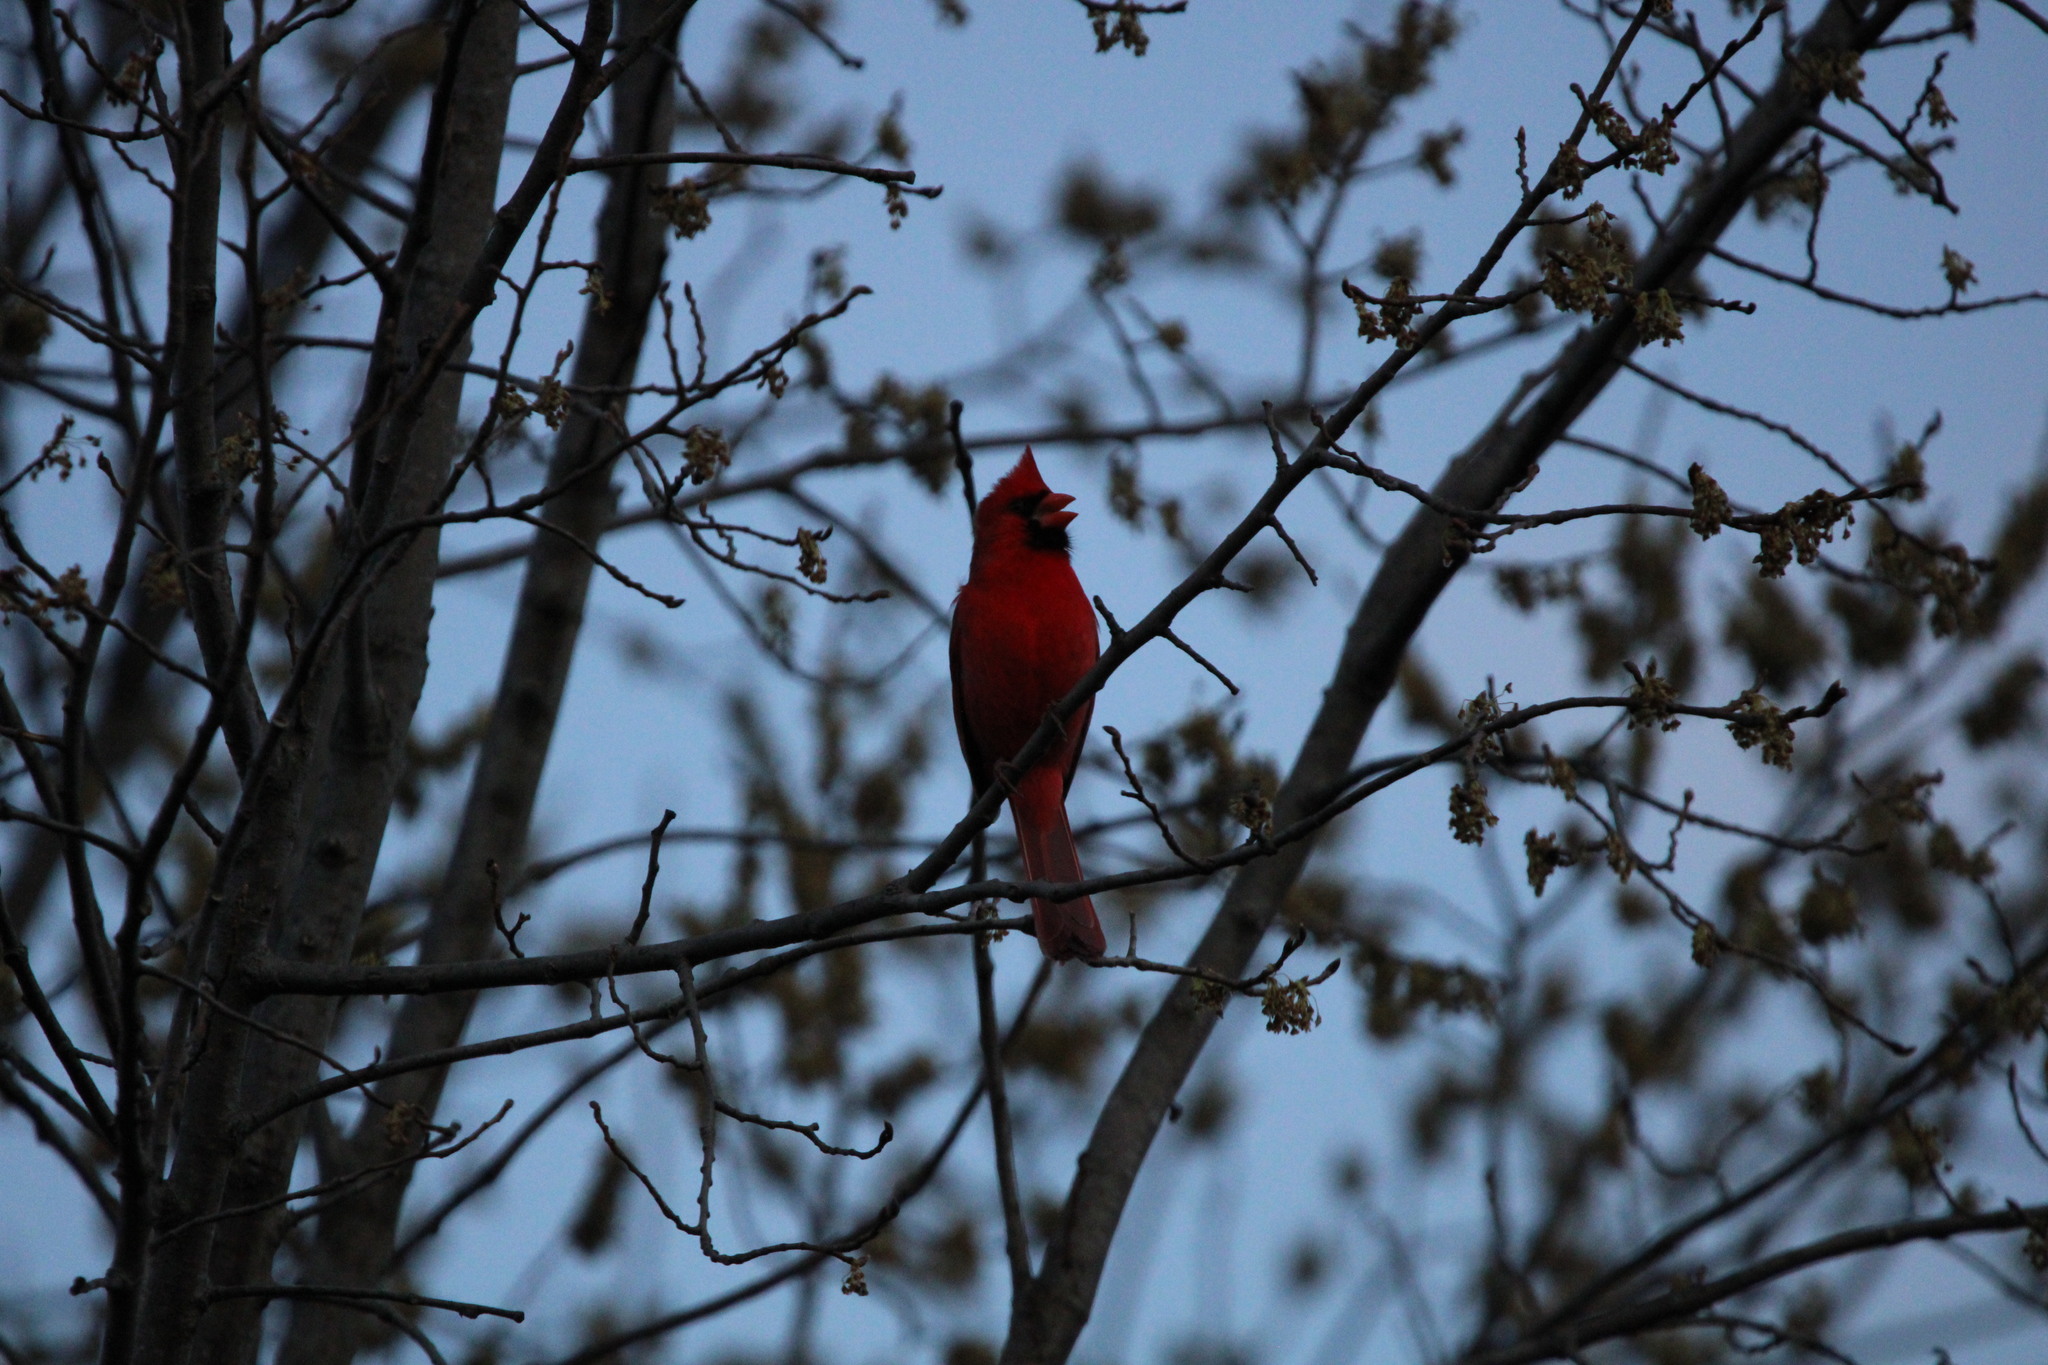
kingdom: Animalia
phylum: Chordata
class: Aves
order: Passeriformes
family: Cardinalidae
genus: Cardinalis
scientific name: Cardinalis cardinalis
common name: Northern cardinal
